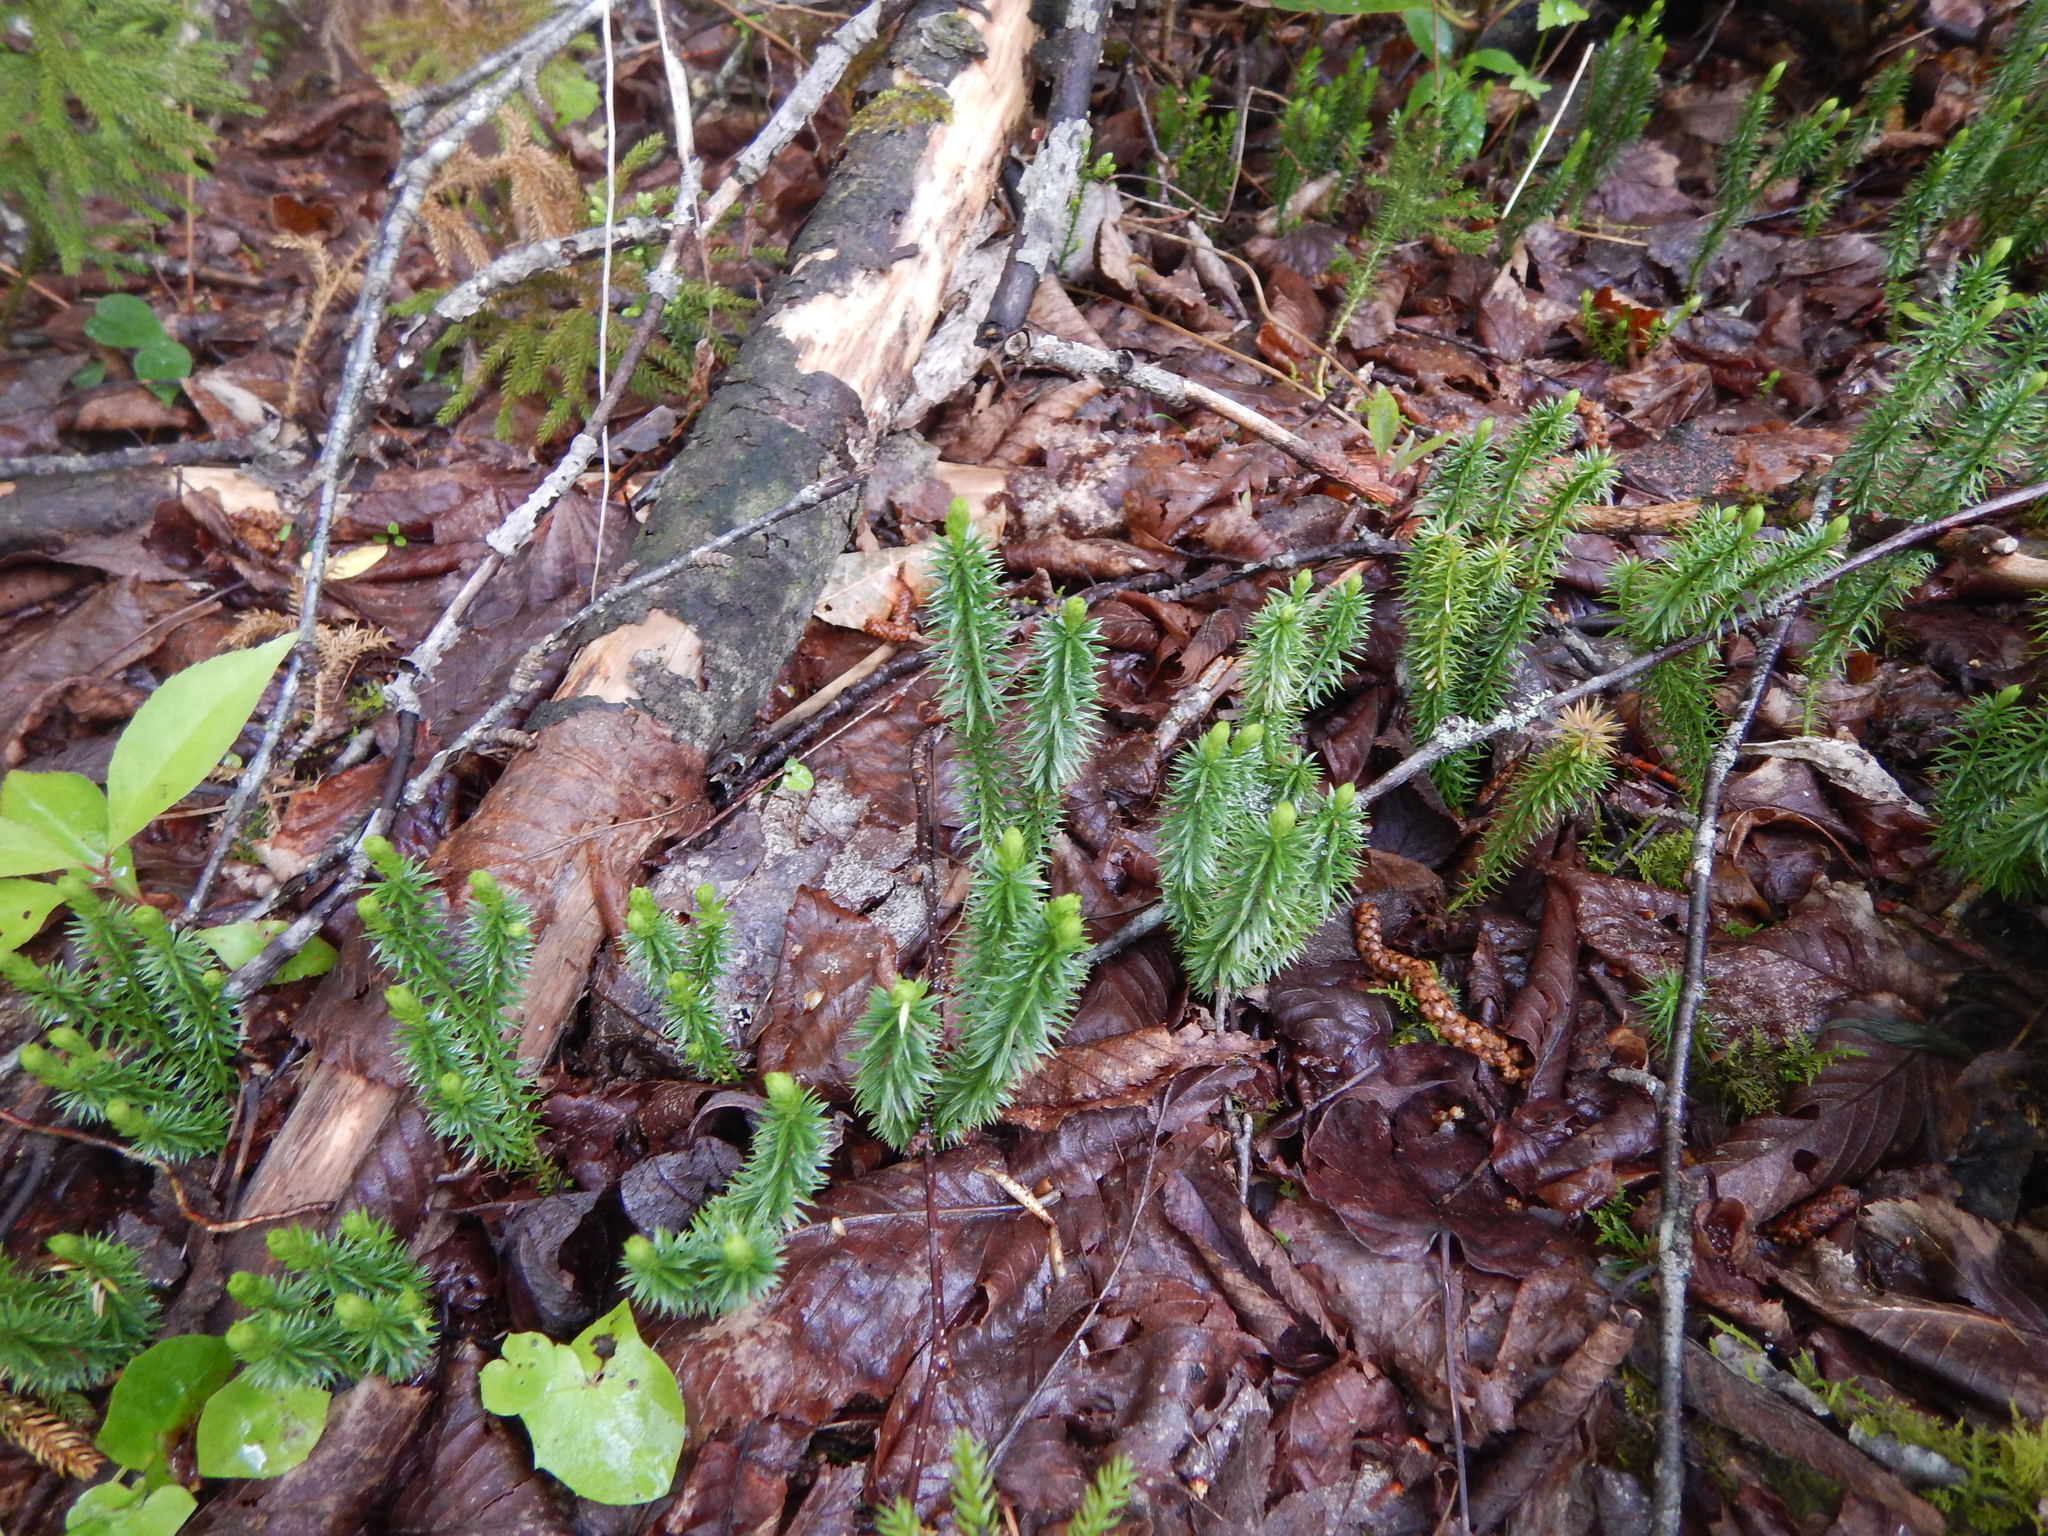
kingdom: Plantae
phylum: Tracheophyta
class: Lycopodiopsida
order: Lycopodiales
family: Lycopodiaceae
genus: Spinulum
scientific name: Spinulum annotinum
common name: Interrupted club-moss
